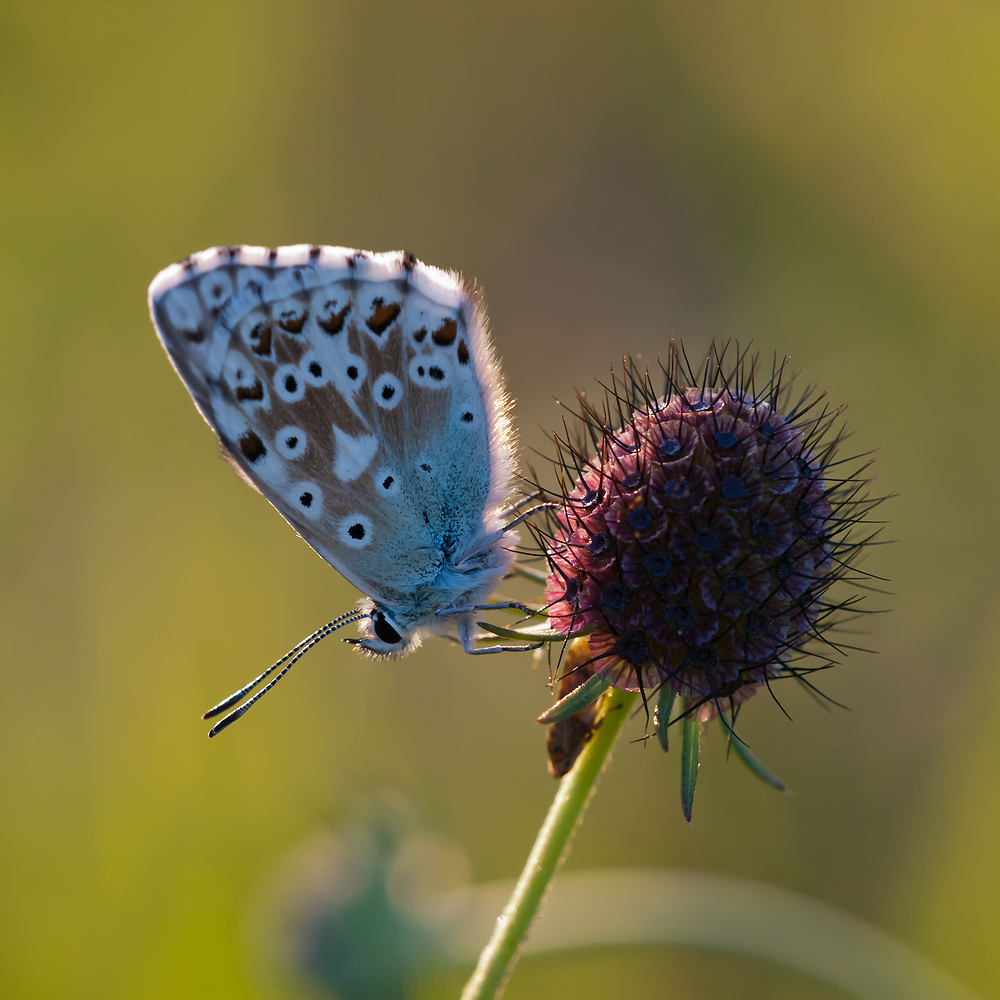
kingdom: Animalia
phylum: Arthropoda
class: Insecta
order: Lepidoptera
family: Lycaenidae
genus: Lysandra
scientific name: Lysandra coridon
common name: Chalkhill blue
